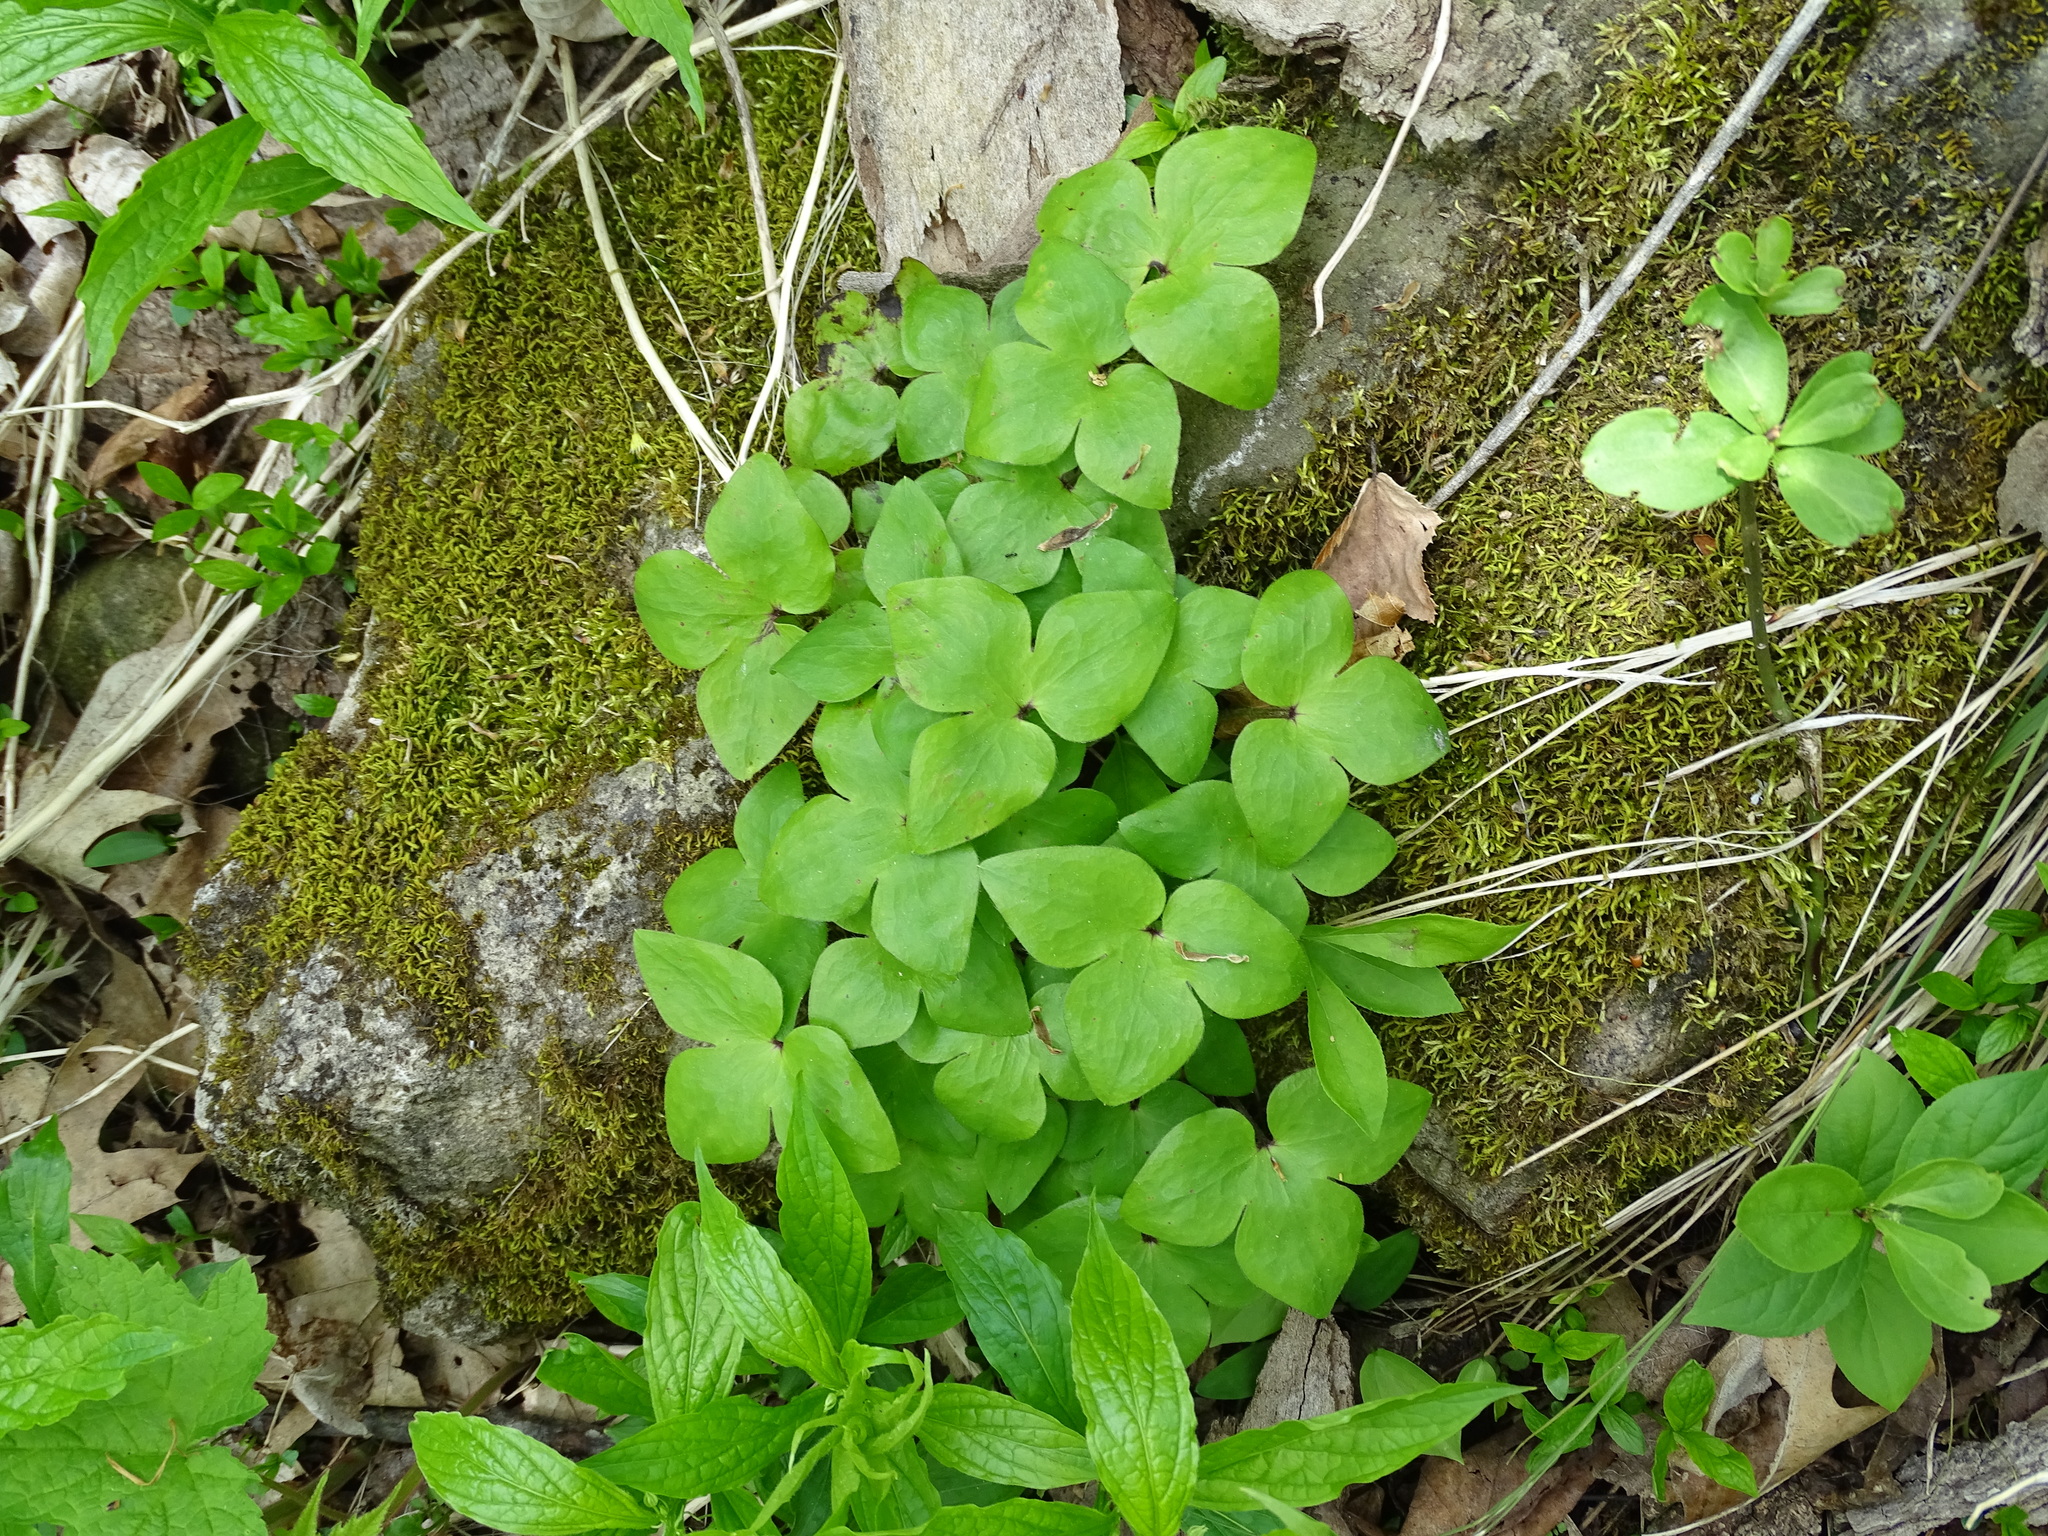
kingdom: Plantae
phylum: Tracheophyta
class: Magnoliopsida
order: Ranunculales
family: Ranunculaceae
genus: Hepatica
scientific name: Hepatica acutiloba
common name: Sharp-lobed hepatica
